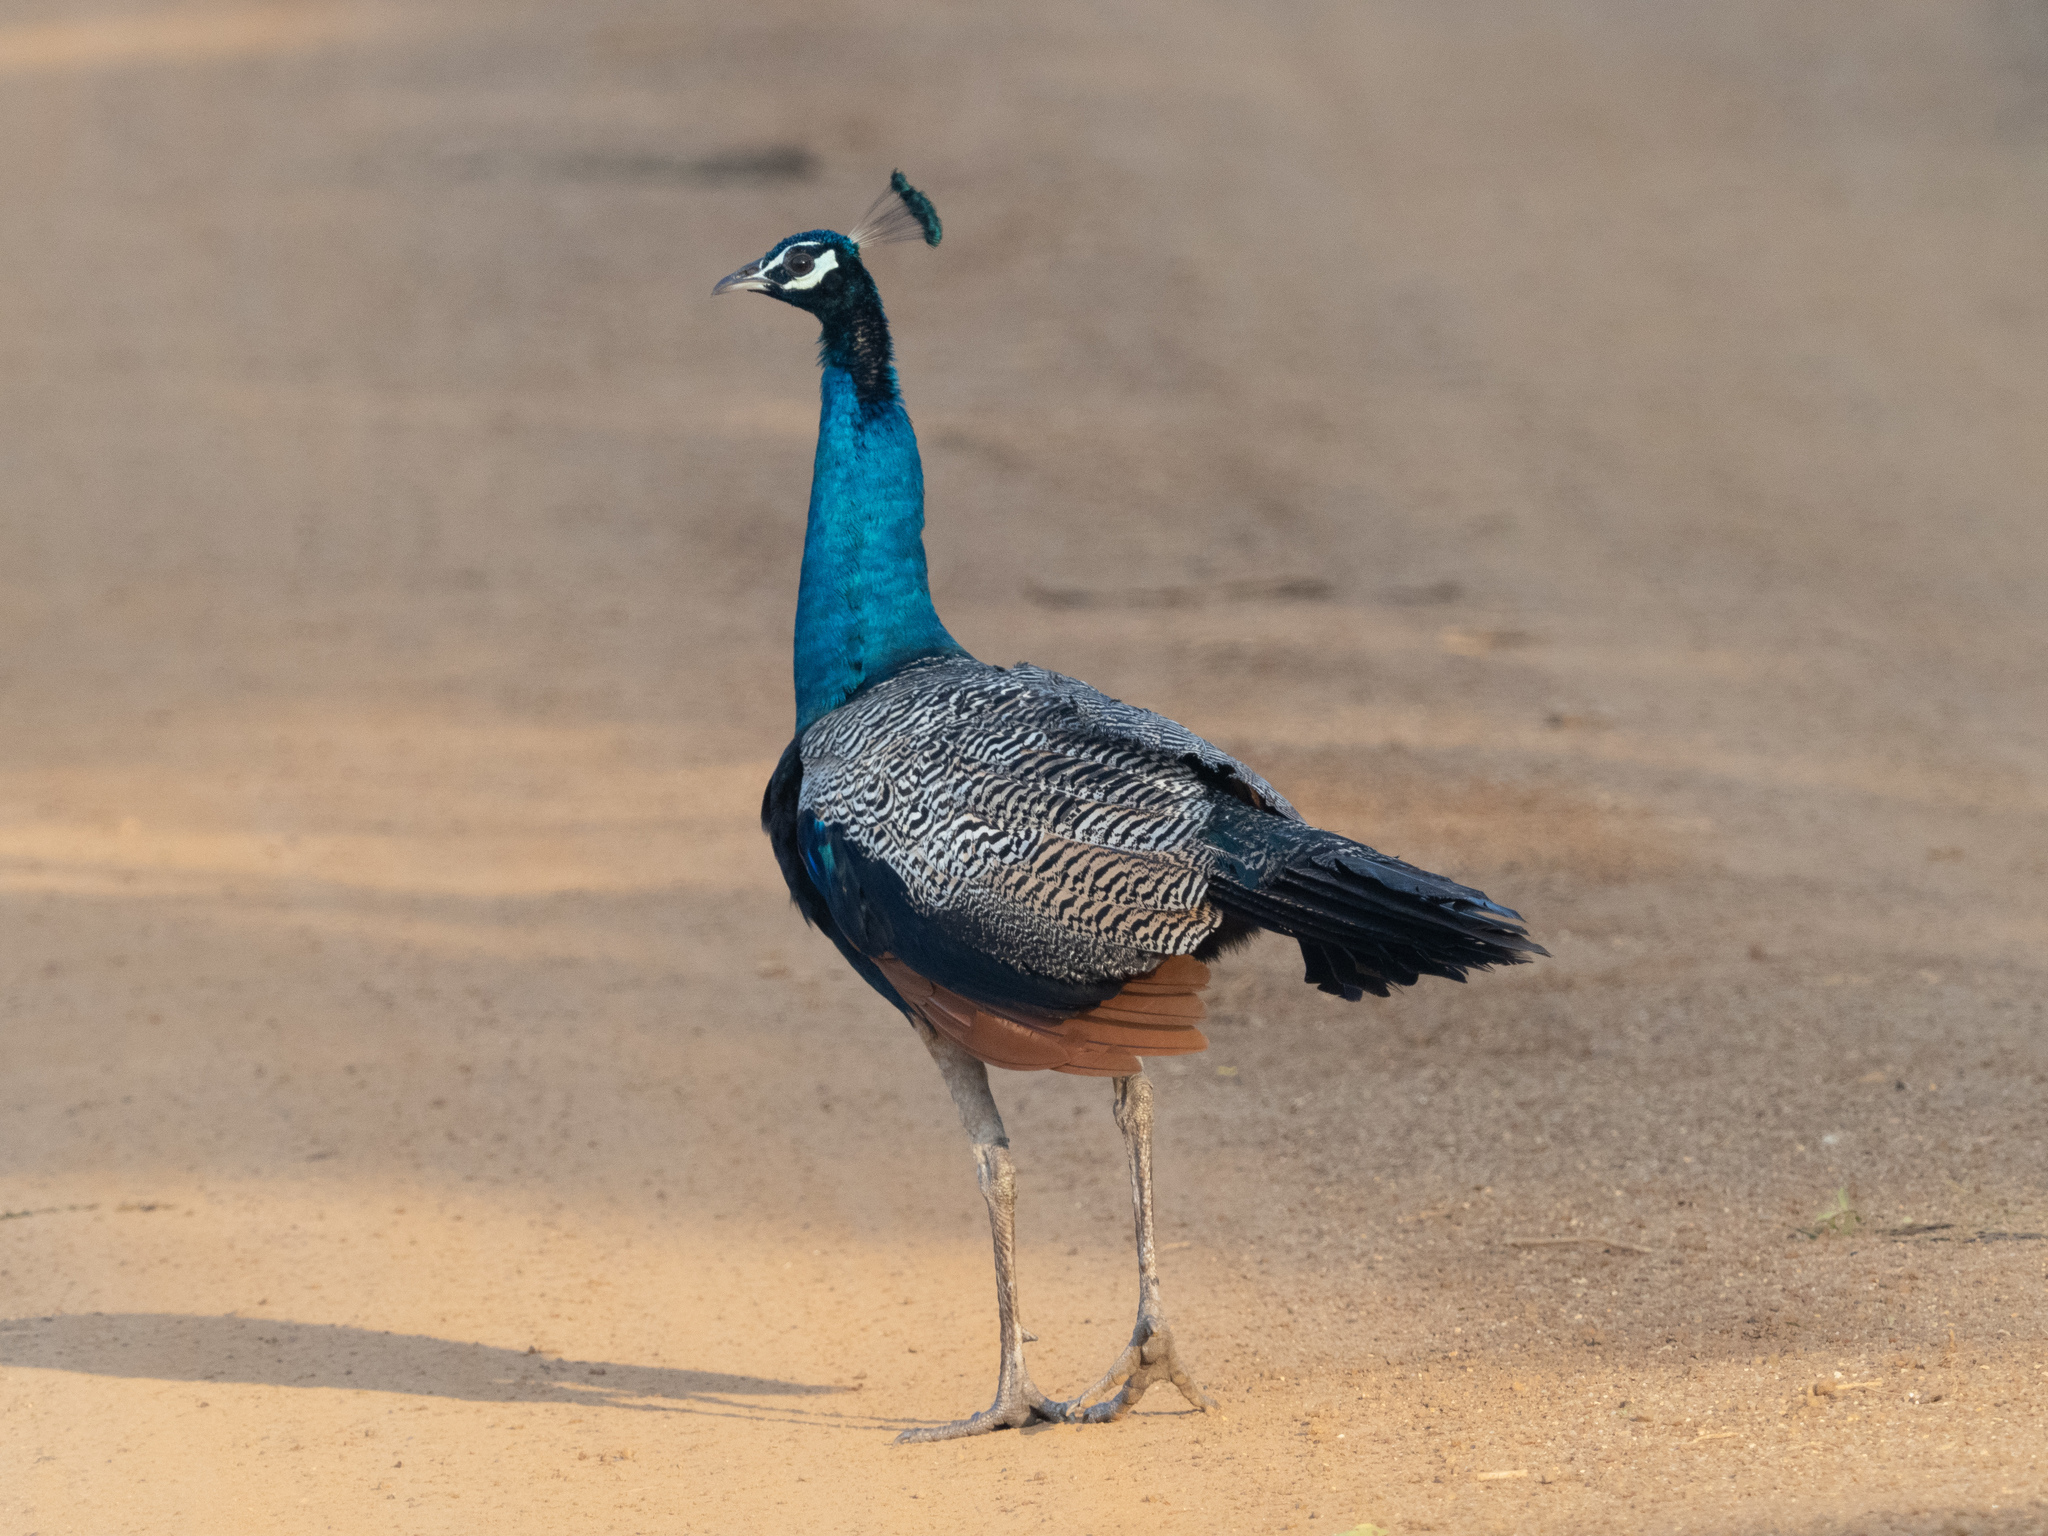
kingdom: Animalia
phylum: Chordata
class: Aves
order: Galliformes
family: Phasianidae
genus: Pavo
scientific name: Pavo cristatus
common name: Indian peafowl
